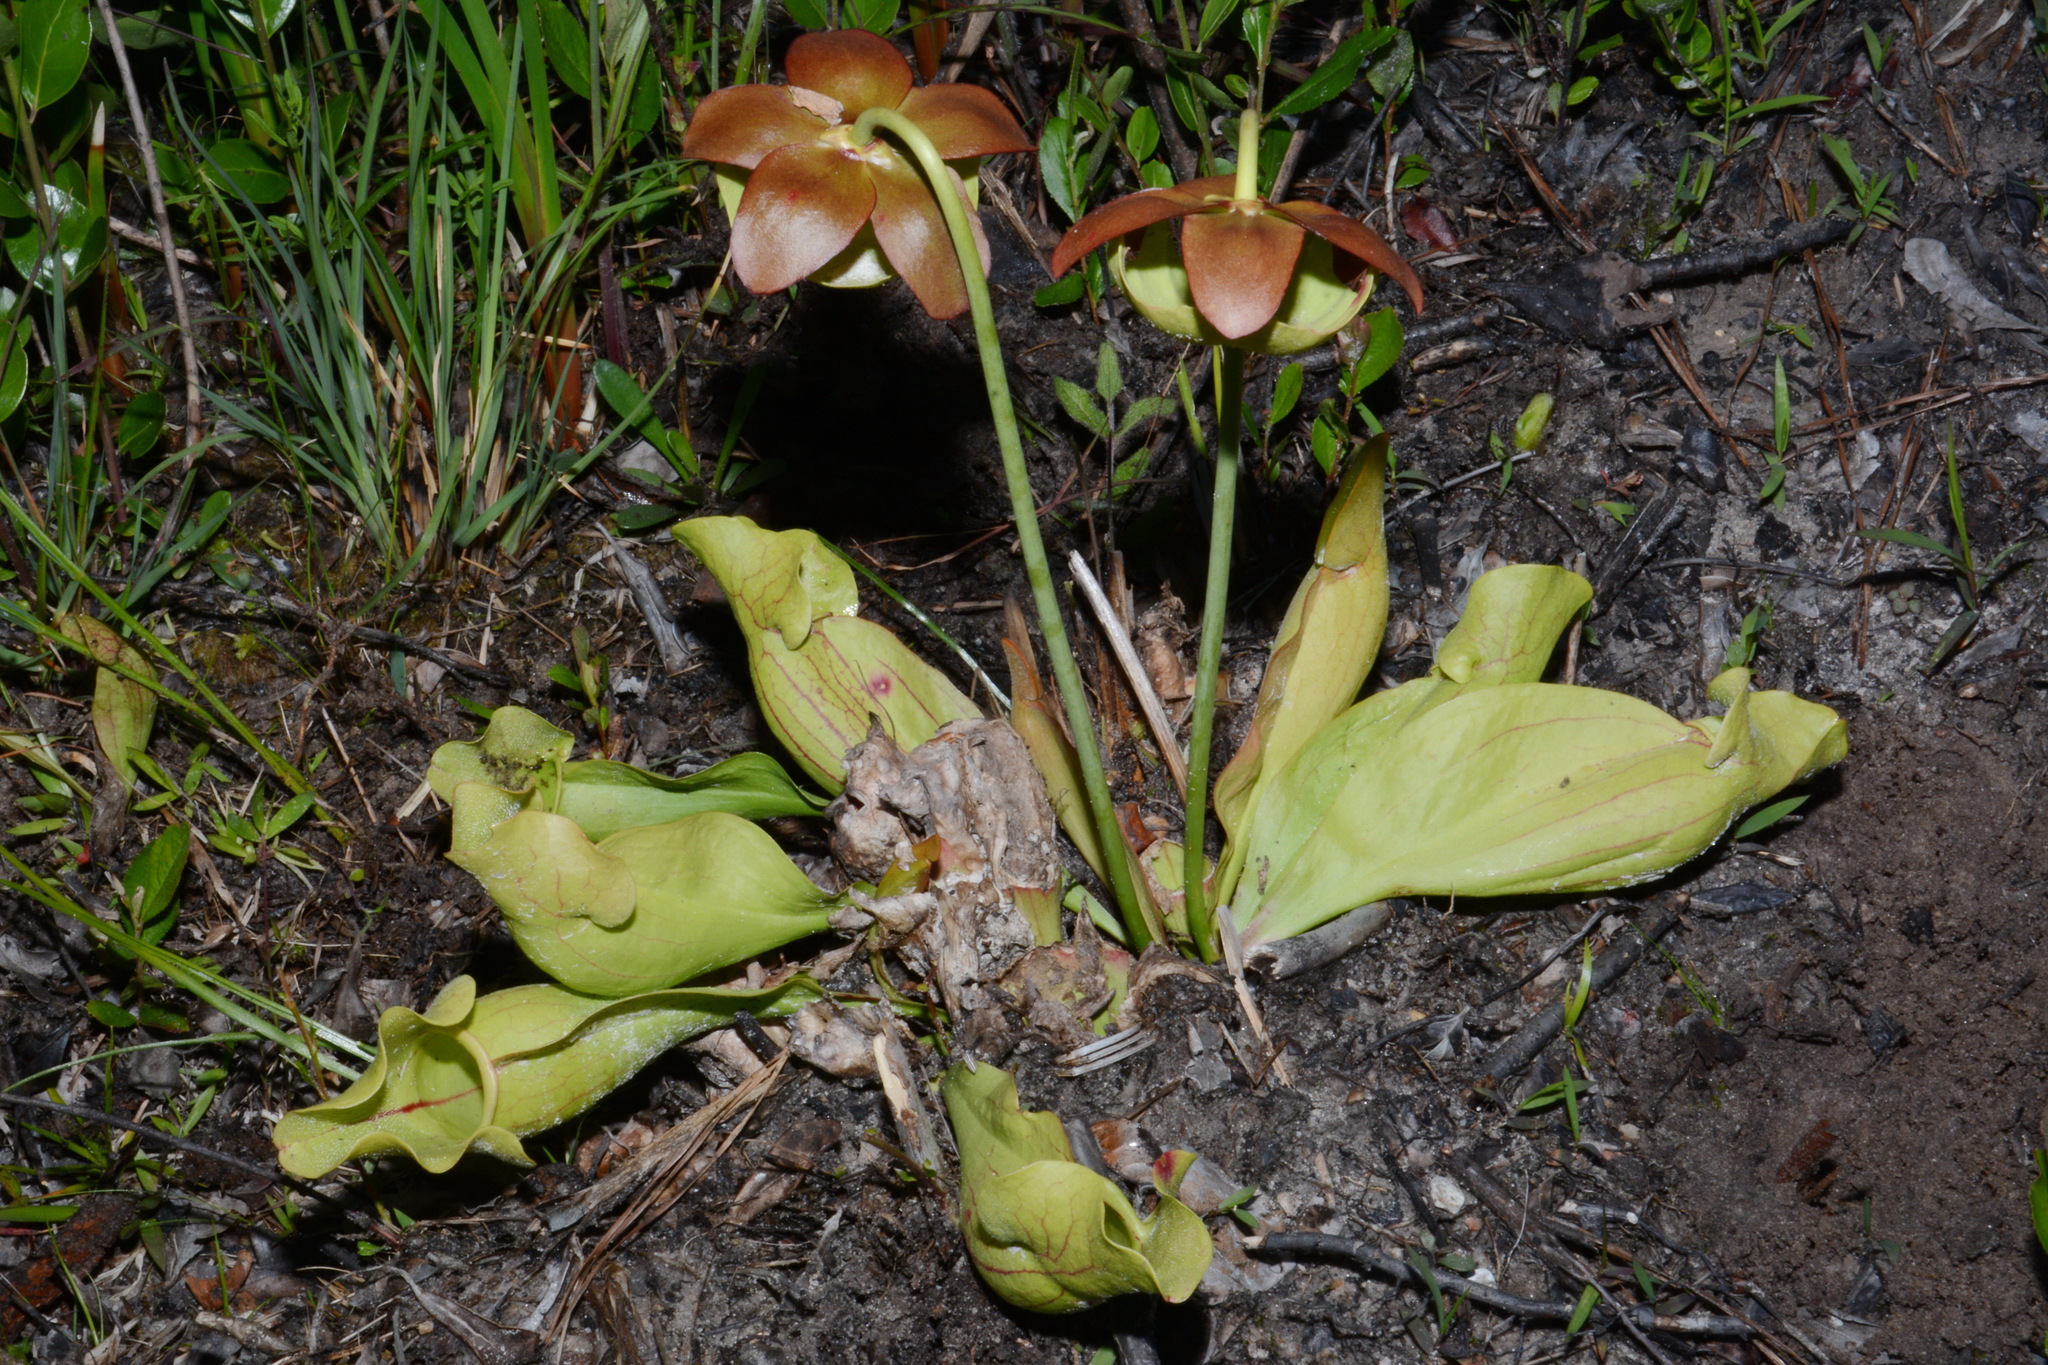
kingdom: Plantae
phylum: Tracheophyta
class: Magnoliopsida
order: Ericales
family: Sarraceniaceae
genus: Sarracenia
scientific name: Sarracenia rosea
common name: Pink pitcherplant
